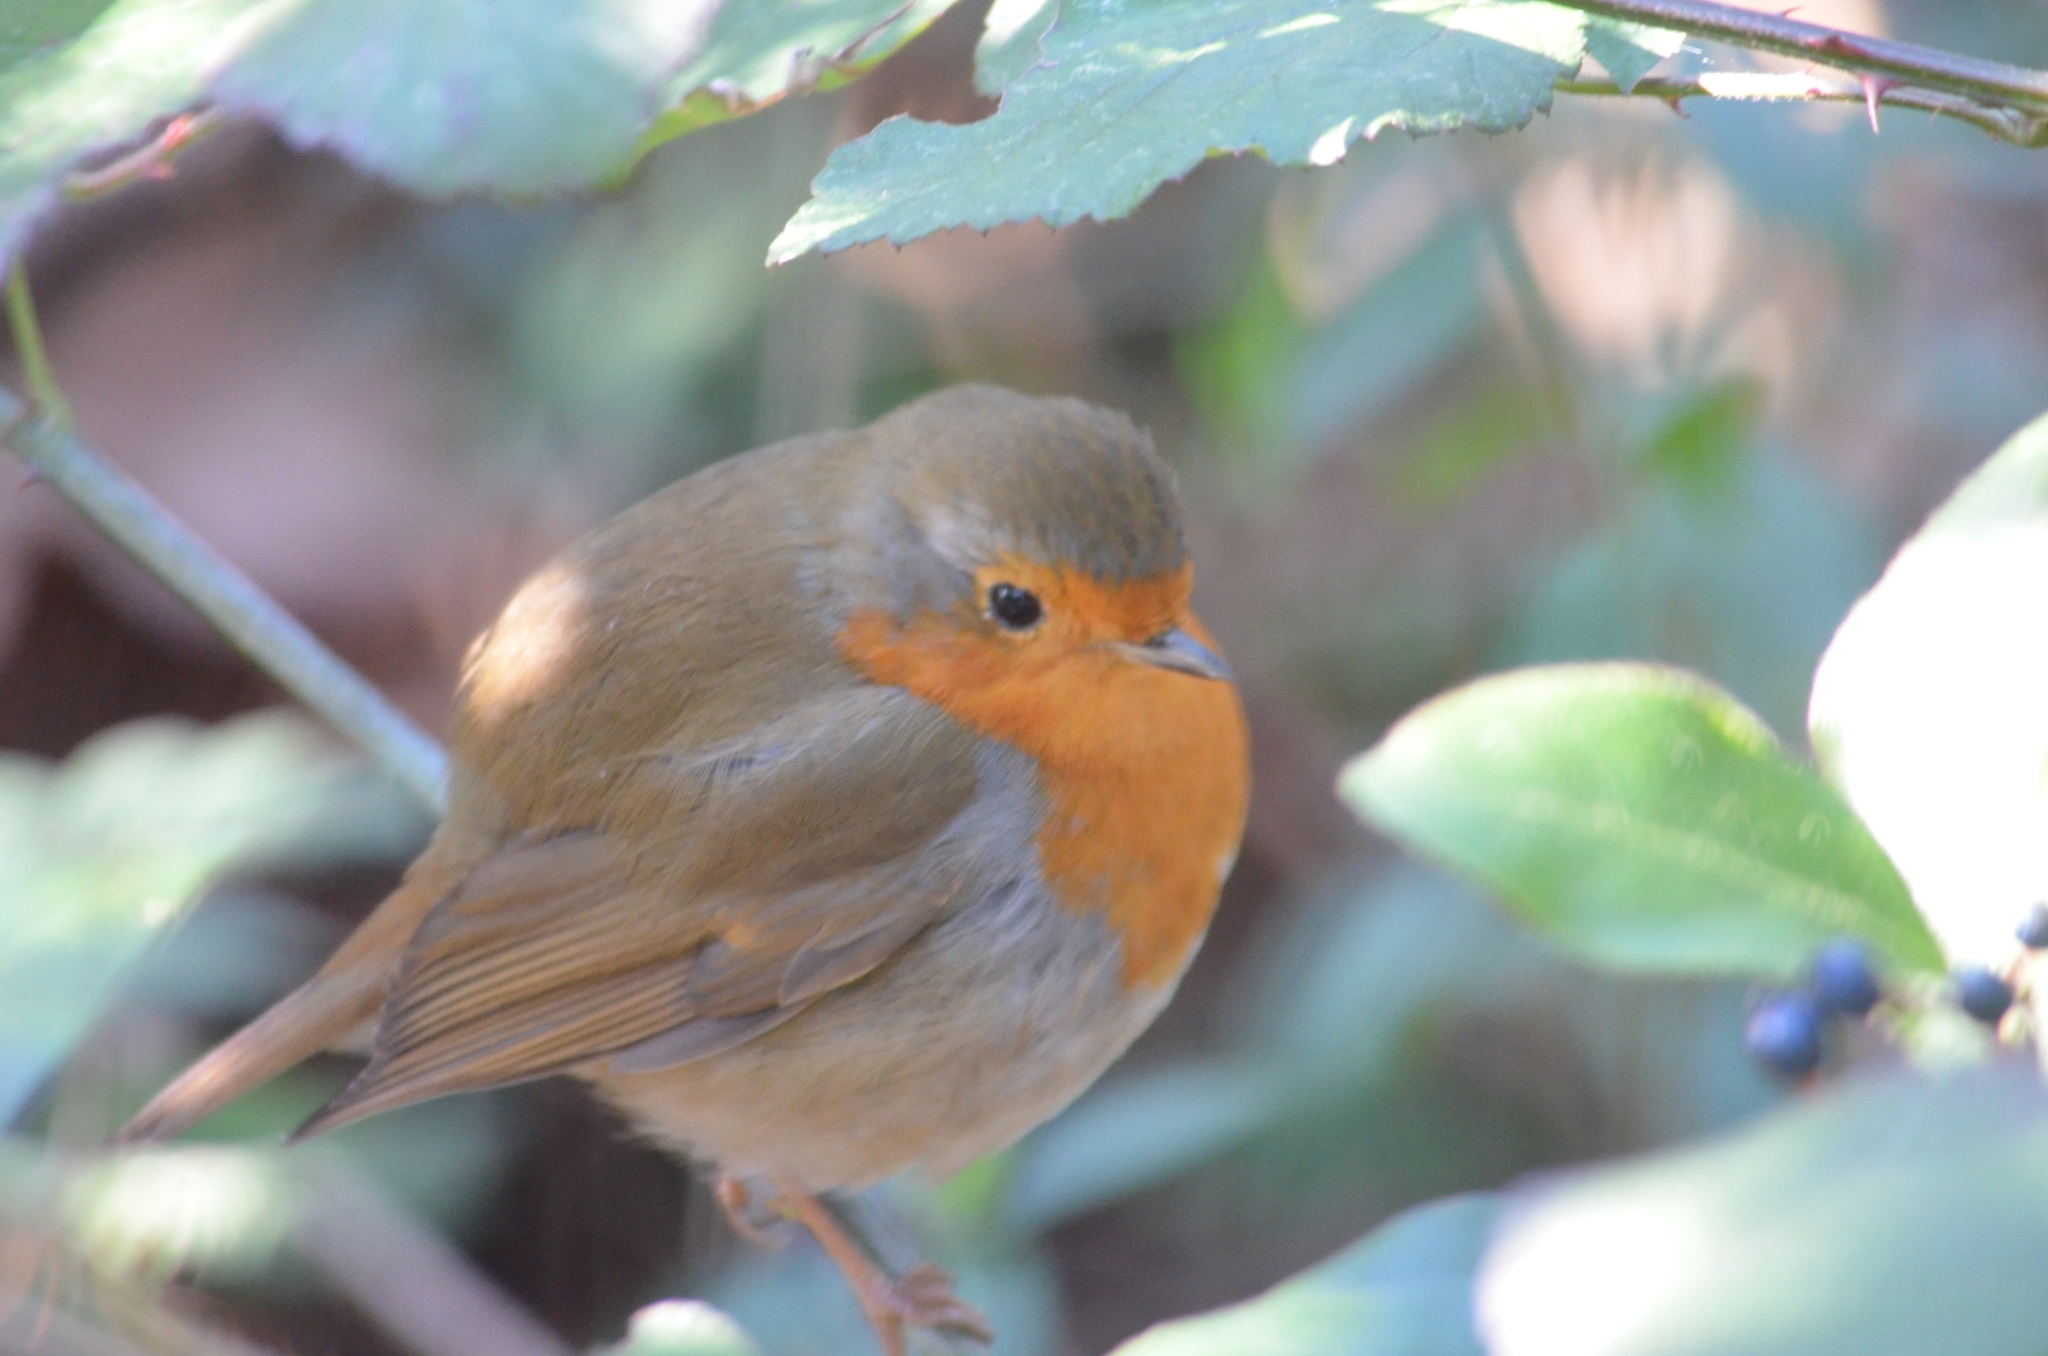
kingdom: Animalia
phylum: Chordata
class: Aves
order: Passeriformes
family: Muscicapidae
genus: Erithacus
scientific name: Erithacus rubecula
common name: European robin
